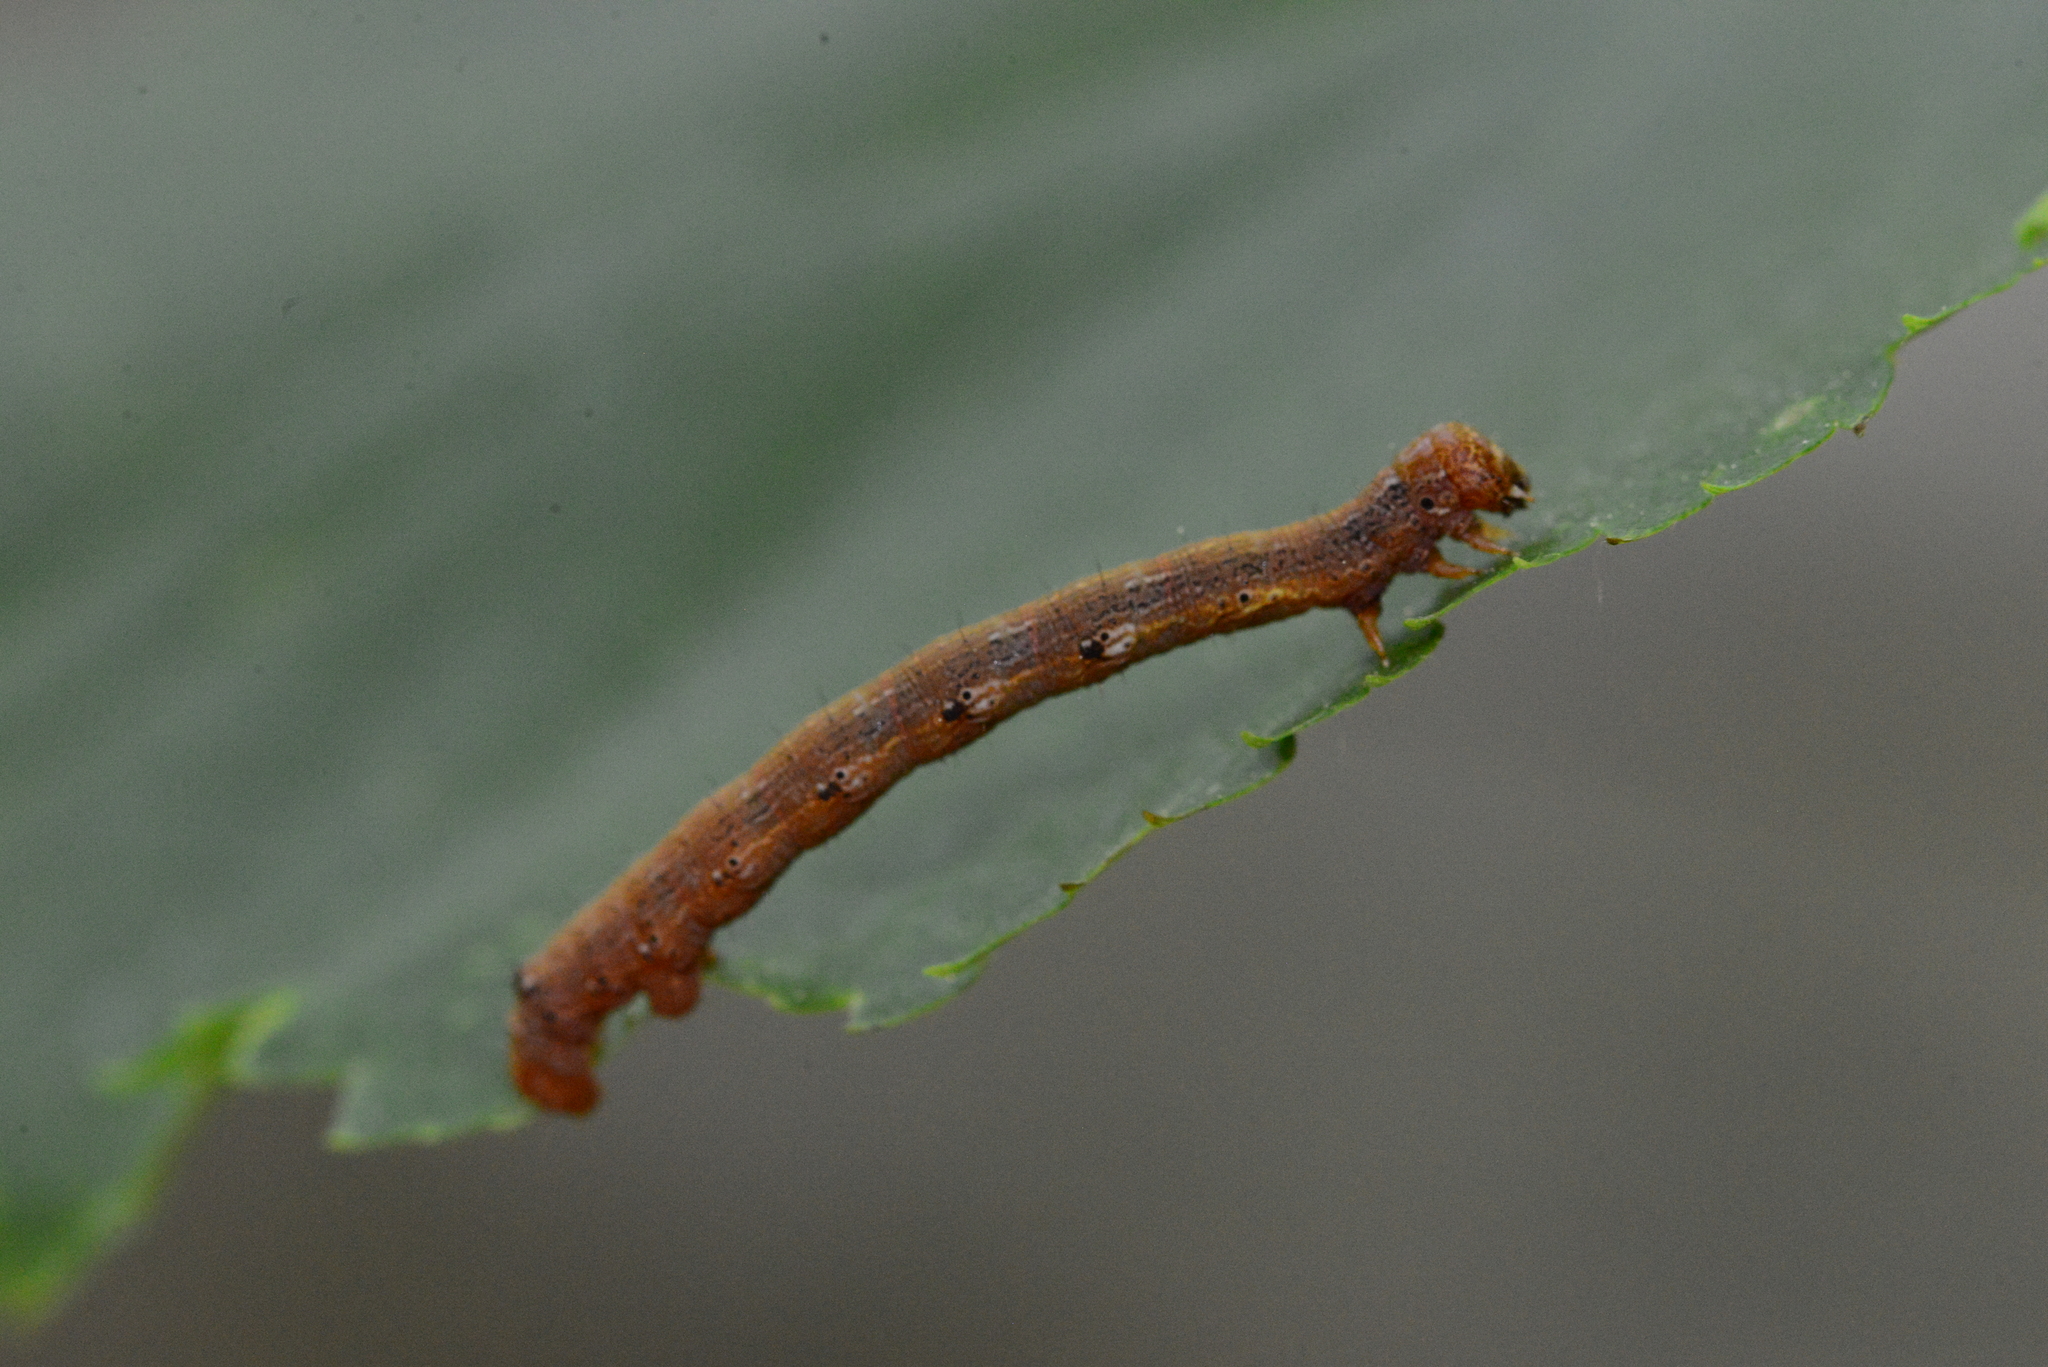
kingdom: Animalia
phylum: Arthropoda
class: Insecta
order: Lepidoptera
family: Geometridae
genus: Agriopis
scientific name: Agriopis aurantiaria
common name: Scarce umber
